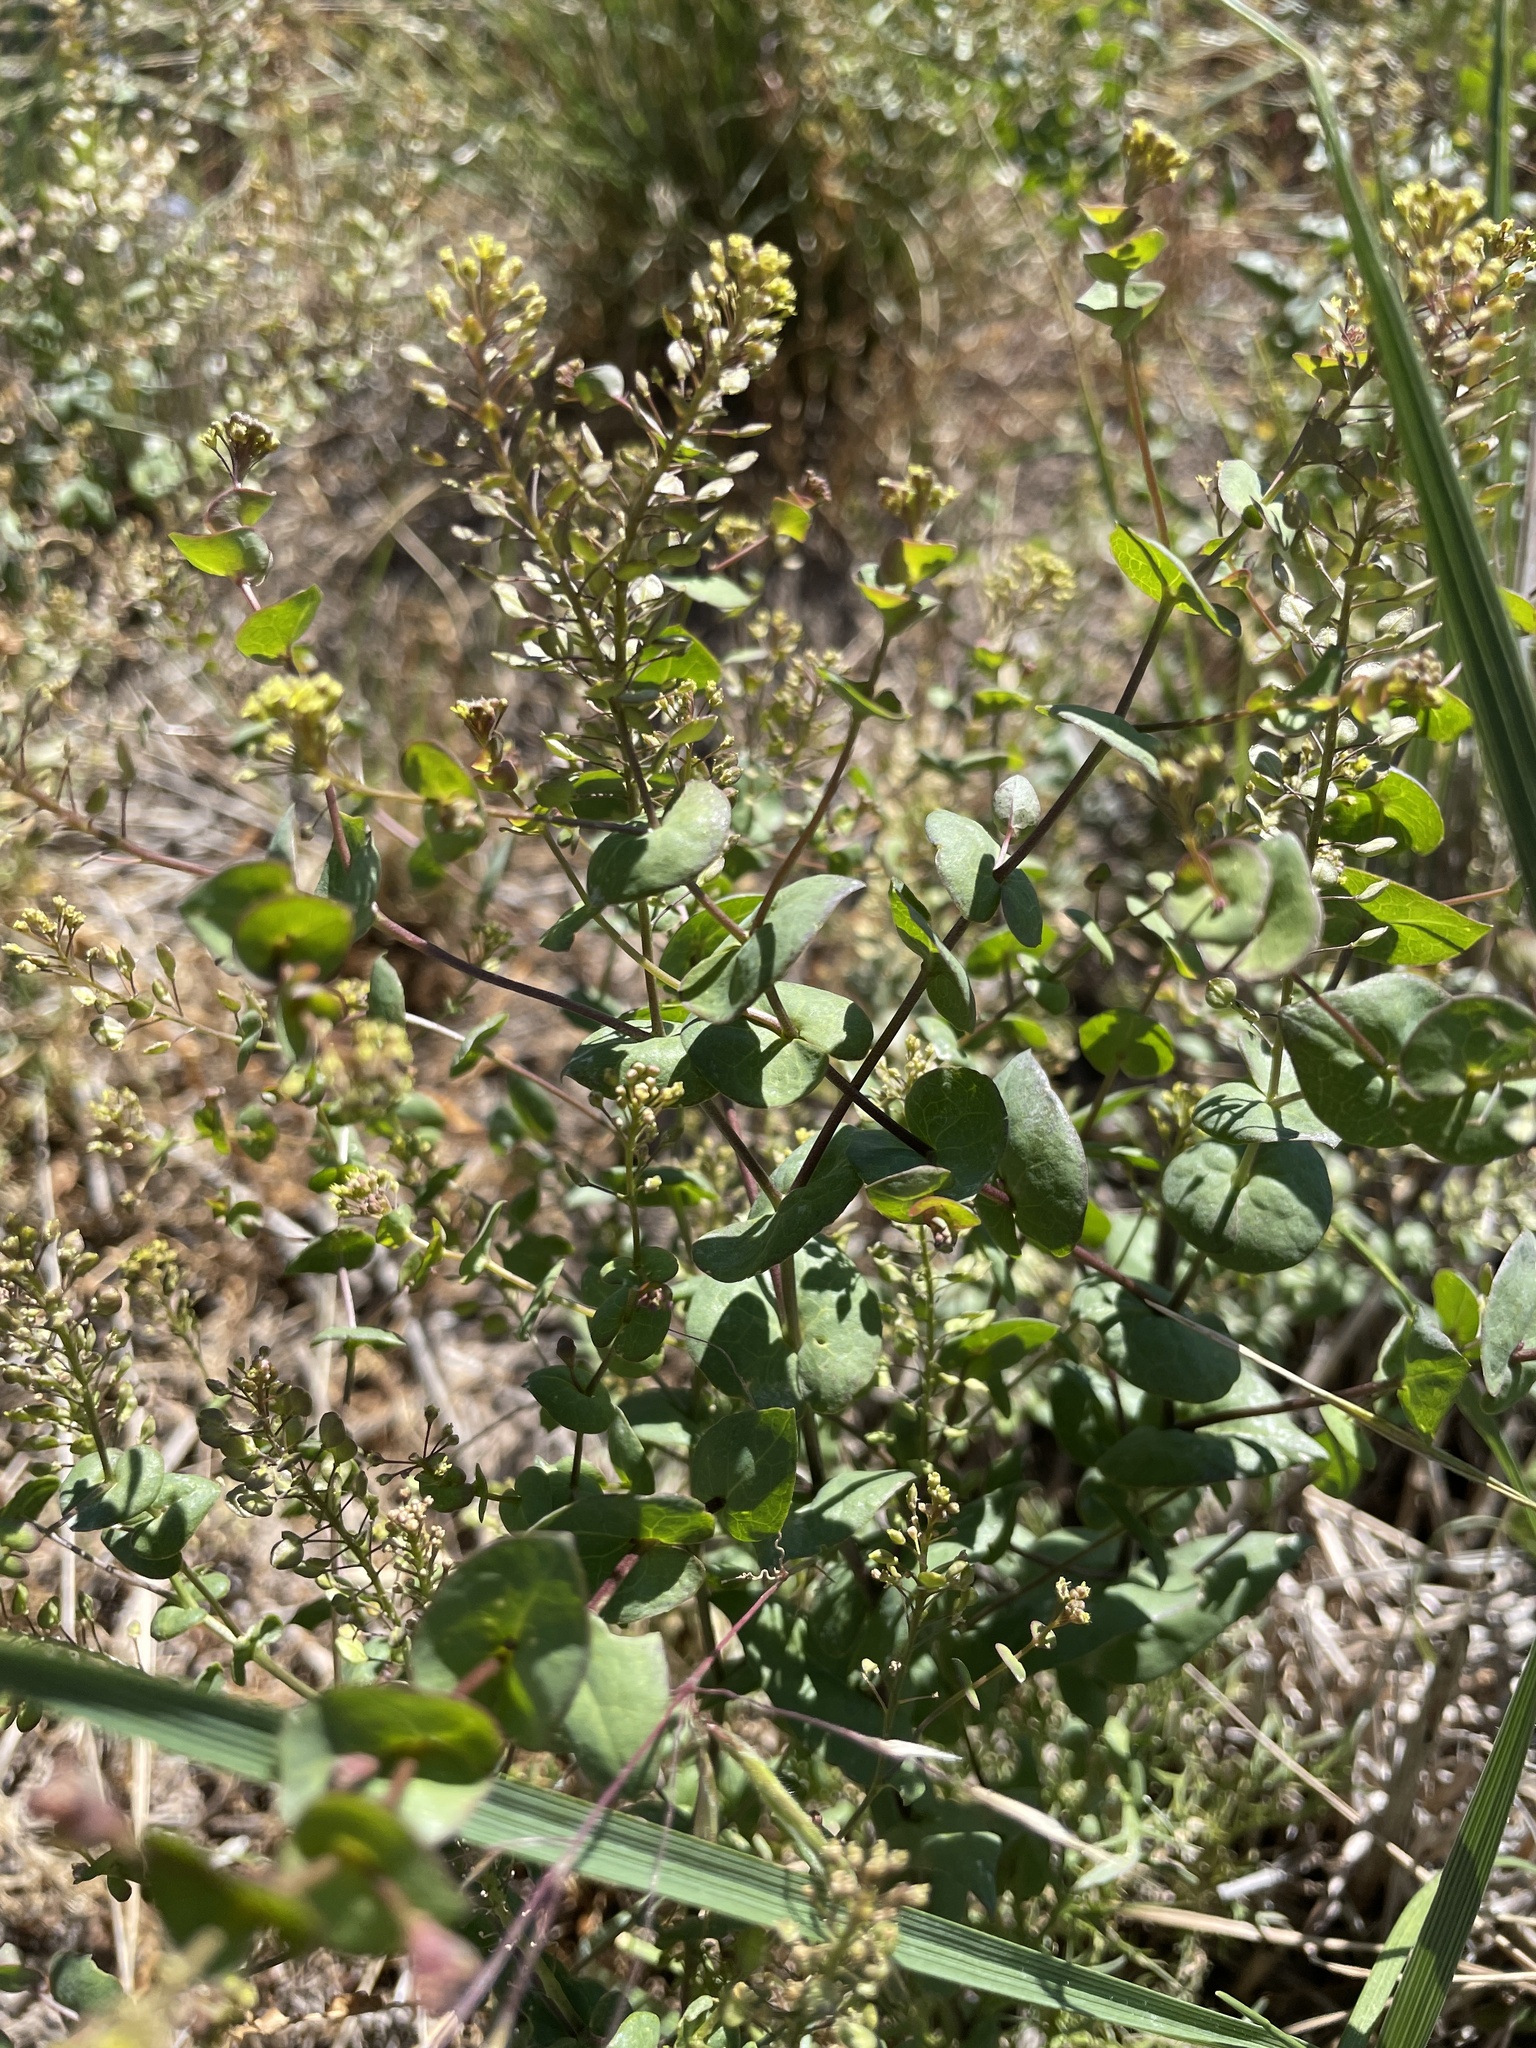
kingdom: Plantae
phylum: Tracheophyta
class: Magnoliopsida
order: Brassicales
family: Brassicaceae
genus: Lepidium
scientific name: Lepidium perfoliatum
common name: Perfoliate pepperwort
